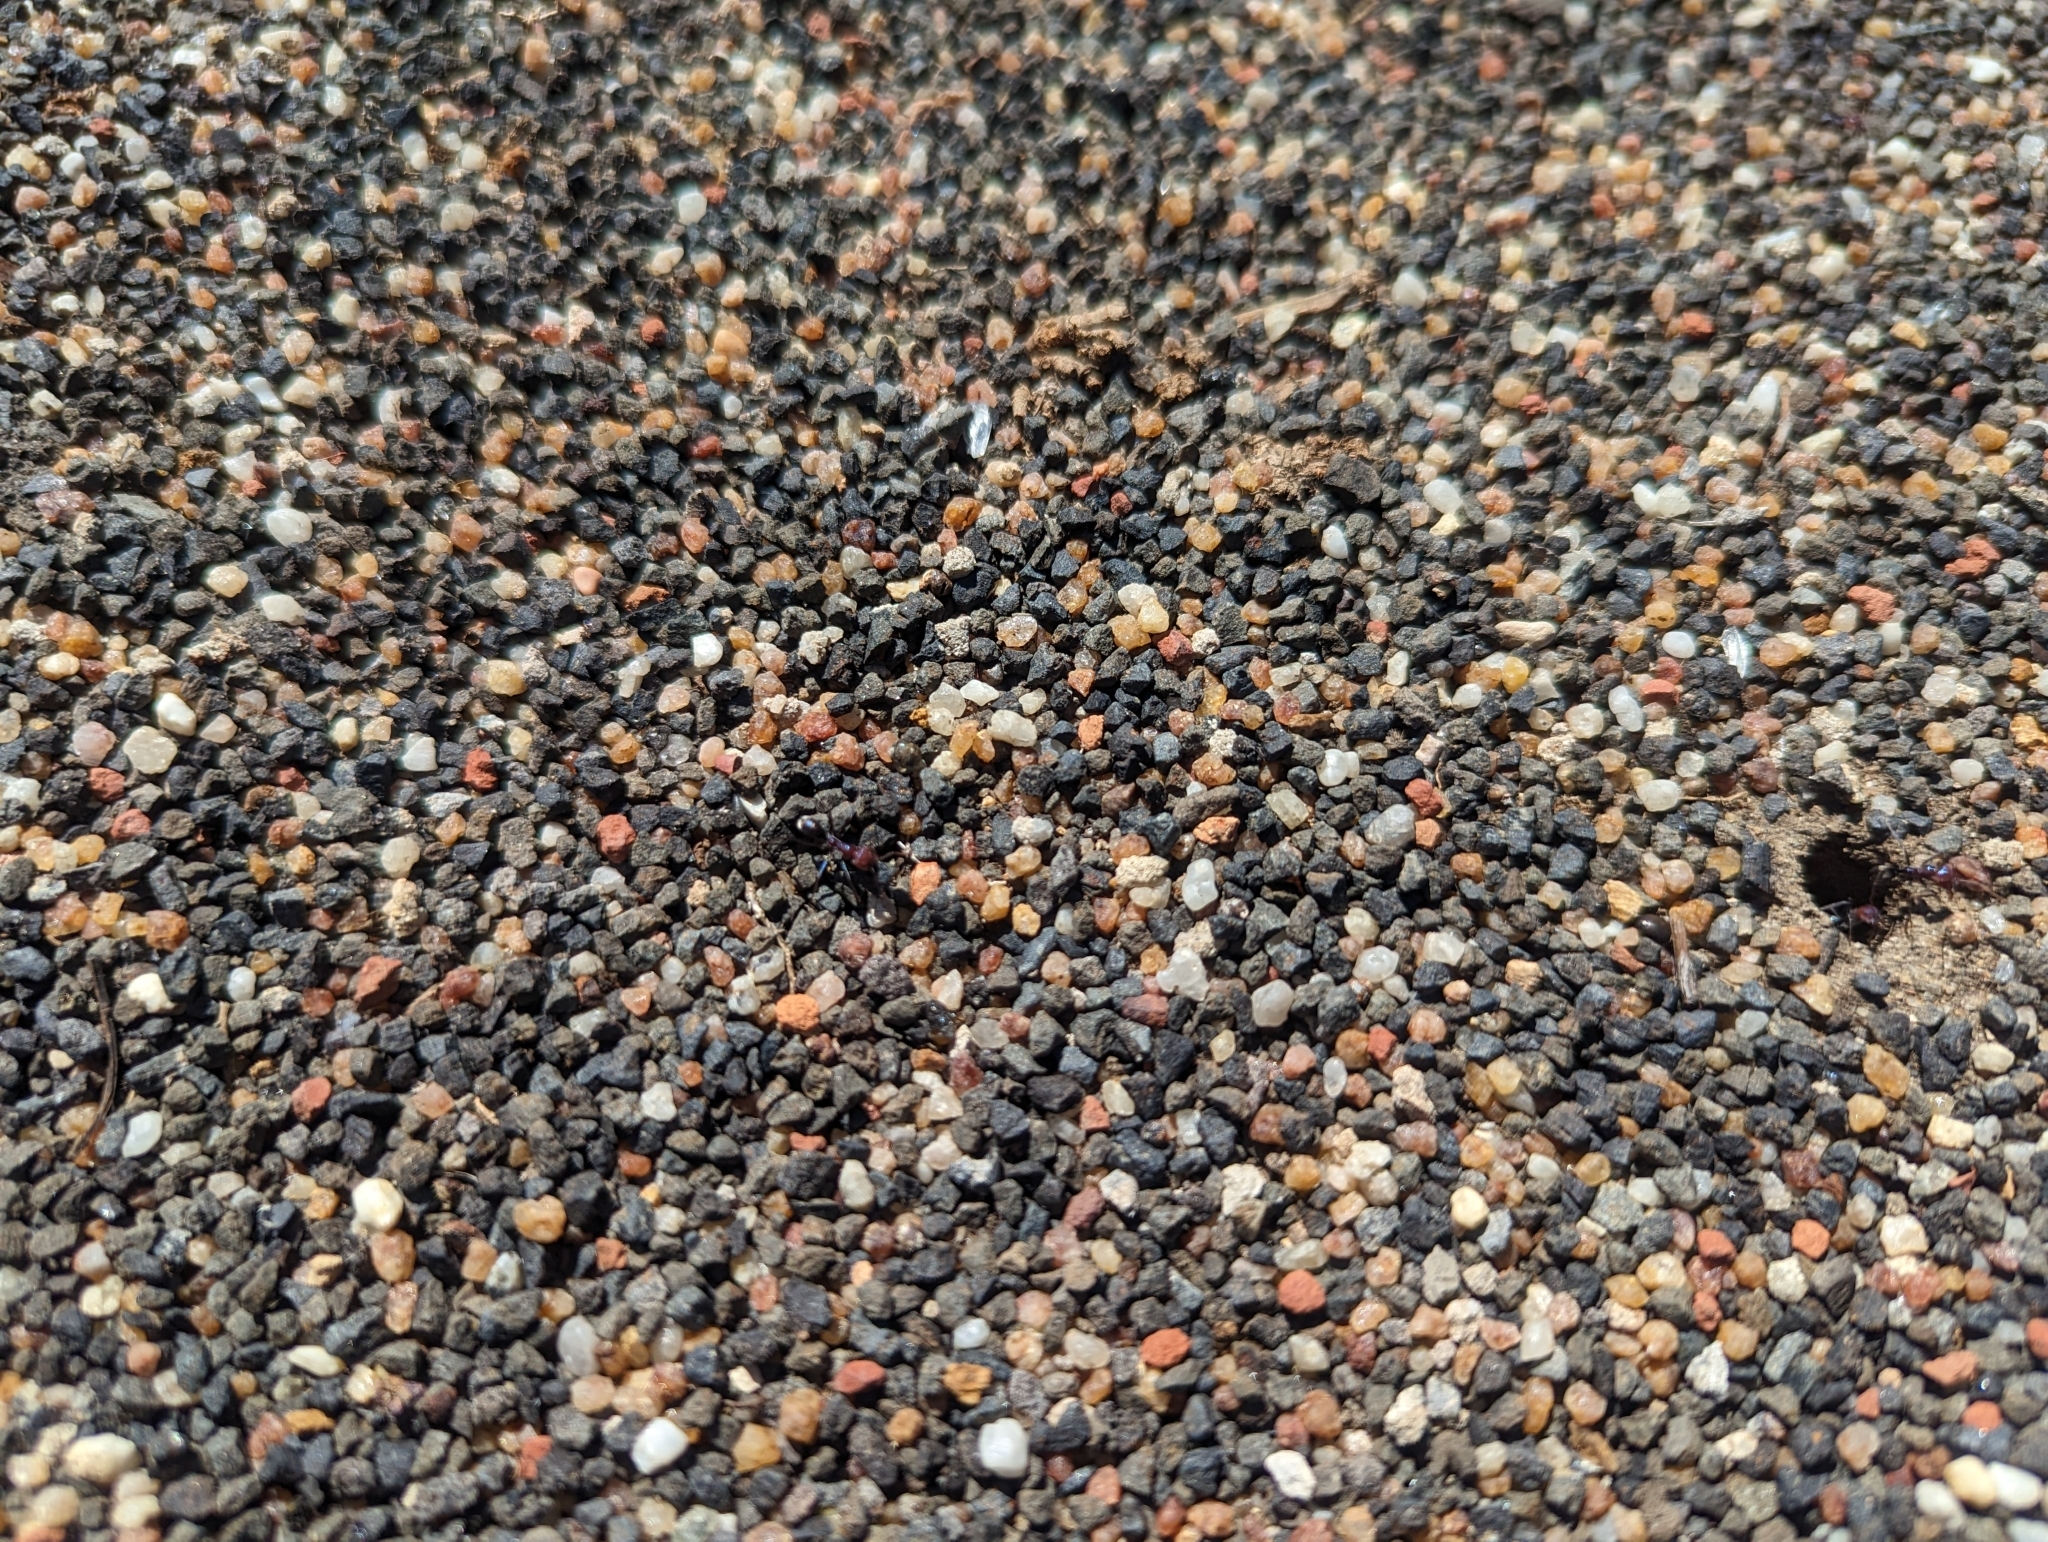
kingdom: Animalia
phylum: Arthropoda
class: Insecta
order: Hymenoptera
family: Formicidae
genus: Iridomyrmex
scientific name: Iridomyrmex purpureus
